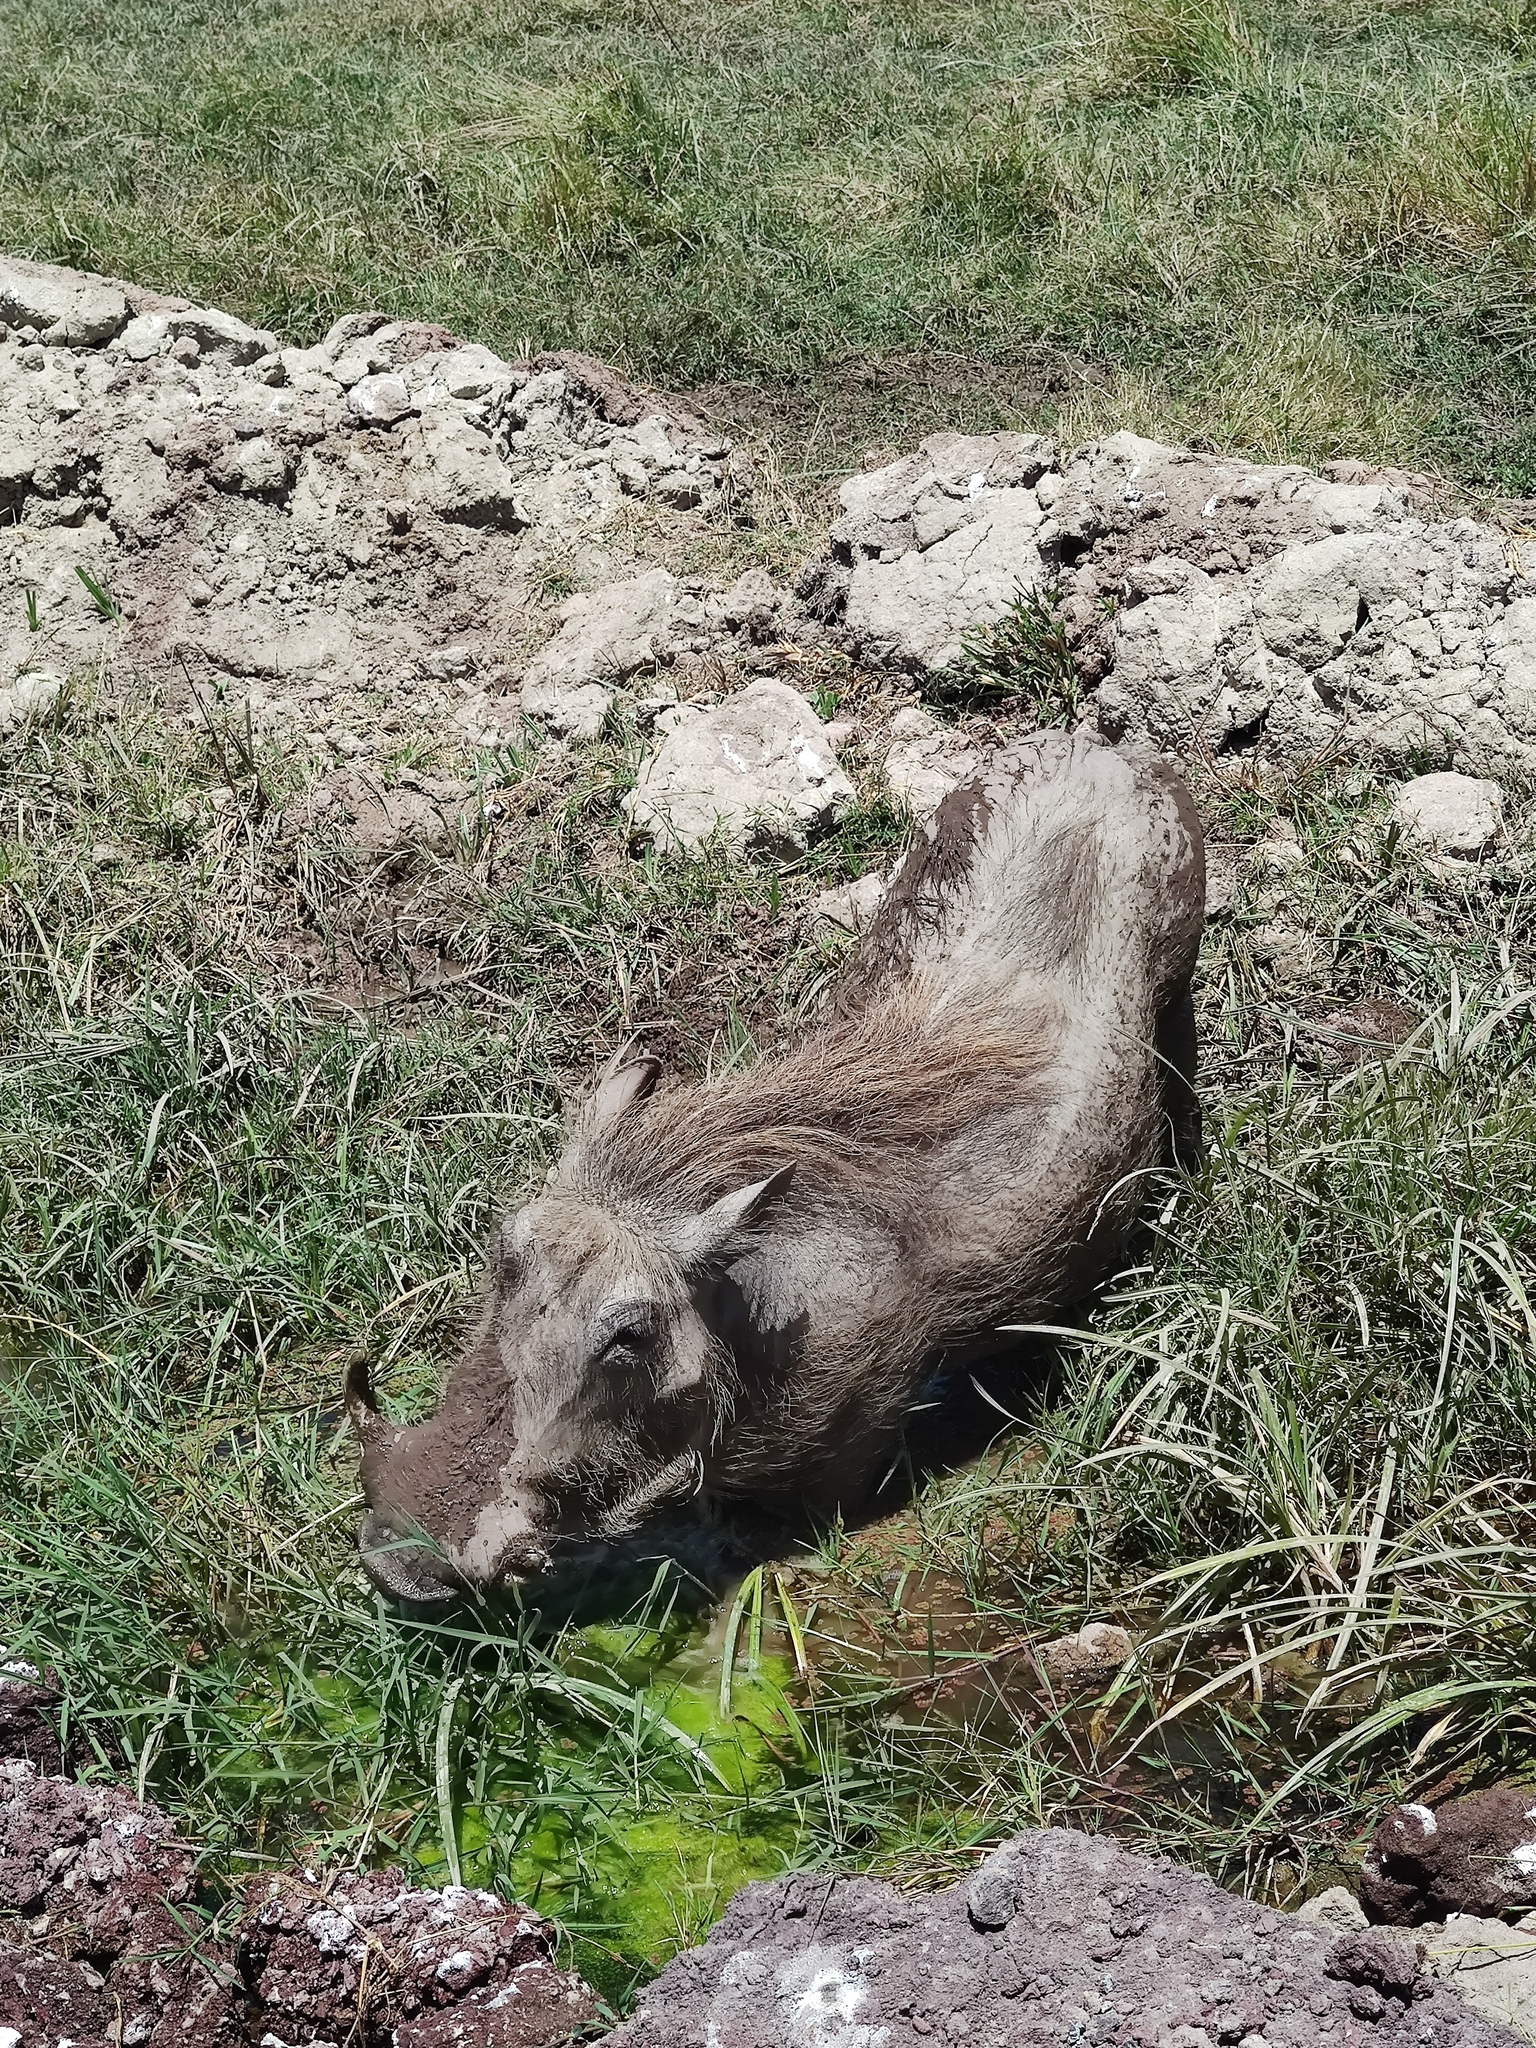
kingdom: Animalia
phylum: Chordata
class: Mammalia
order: Artiodactyla
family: Suidae
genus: Phacochoerus
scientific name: Phacochoerus africanus
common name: Common warthog
